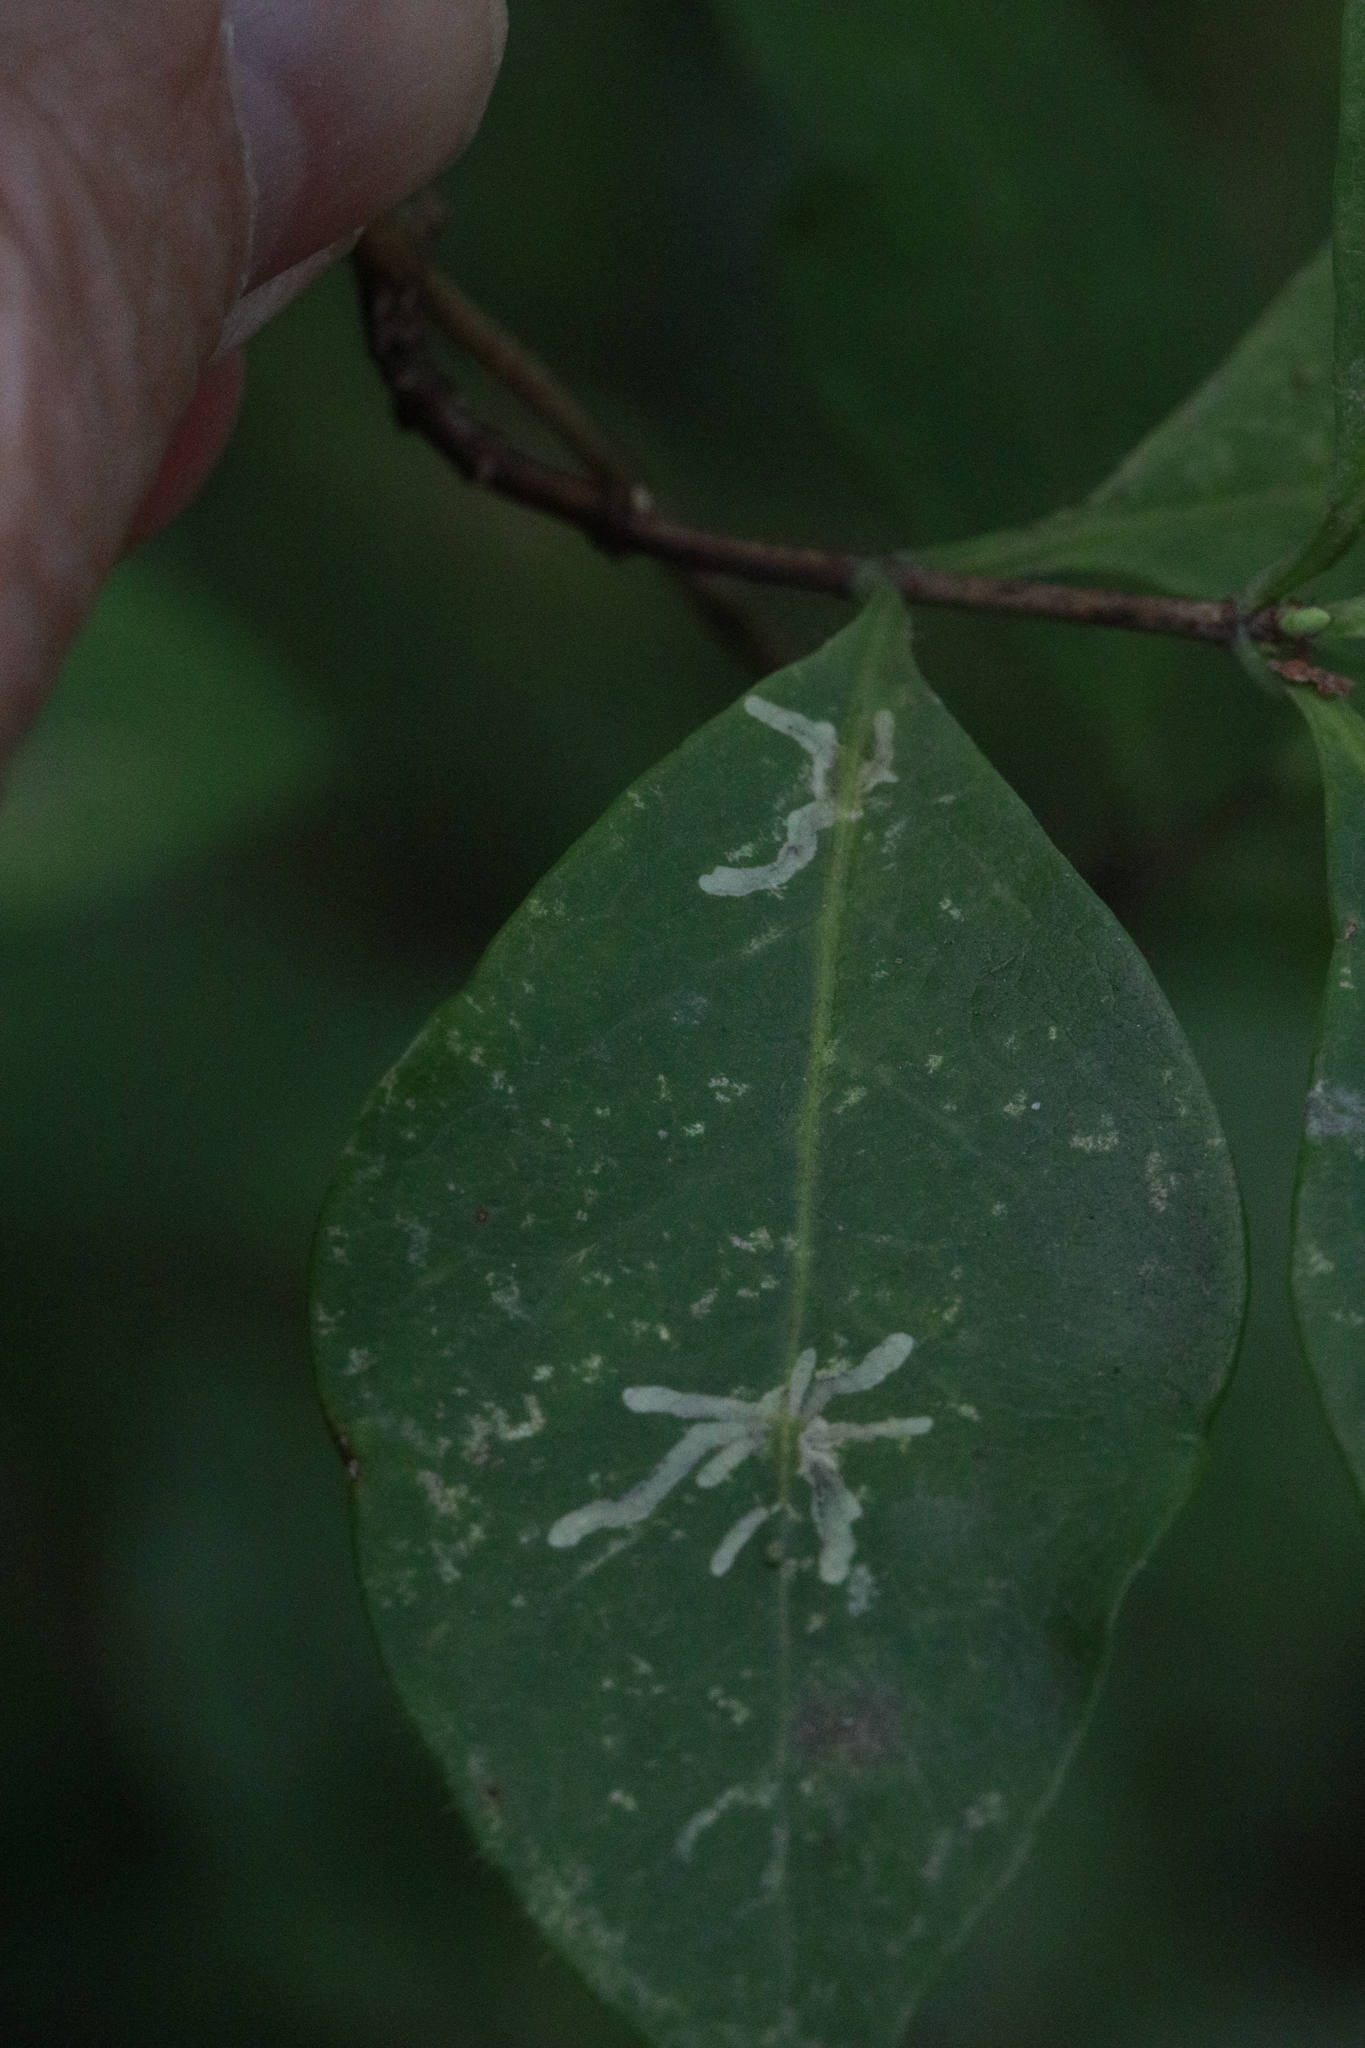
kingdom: Animalia
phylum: Arthropoda
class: Insecta
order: Diptera
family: Agromyzidae
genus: Phytomyza
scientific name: Phytomyza aprilina
